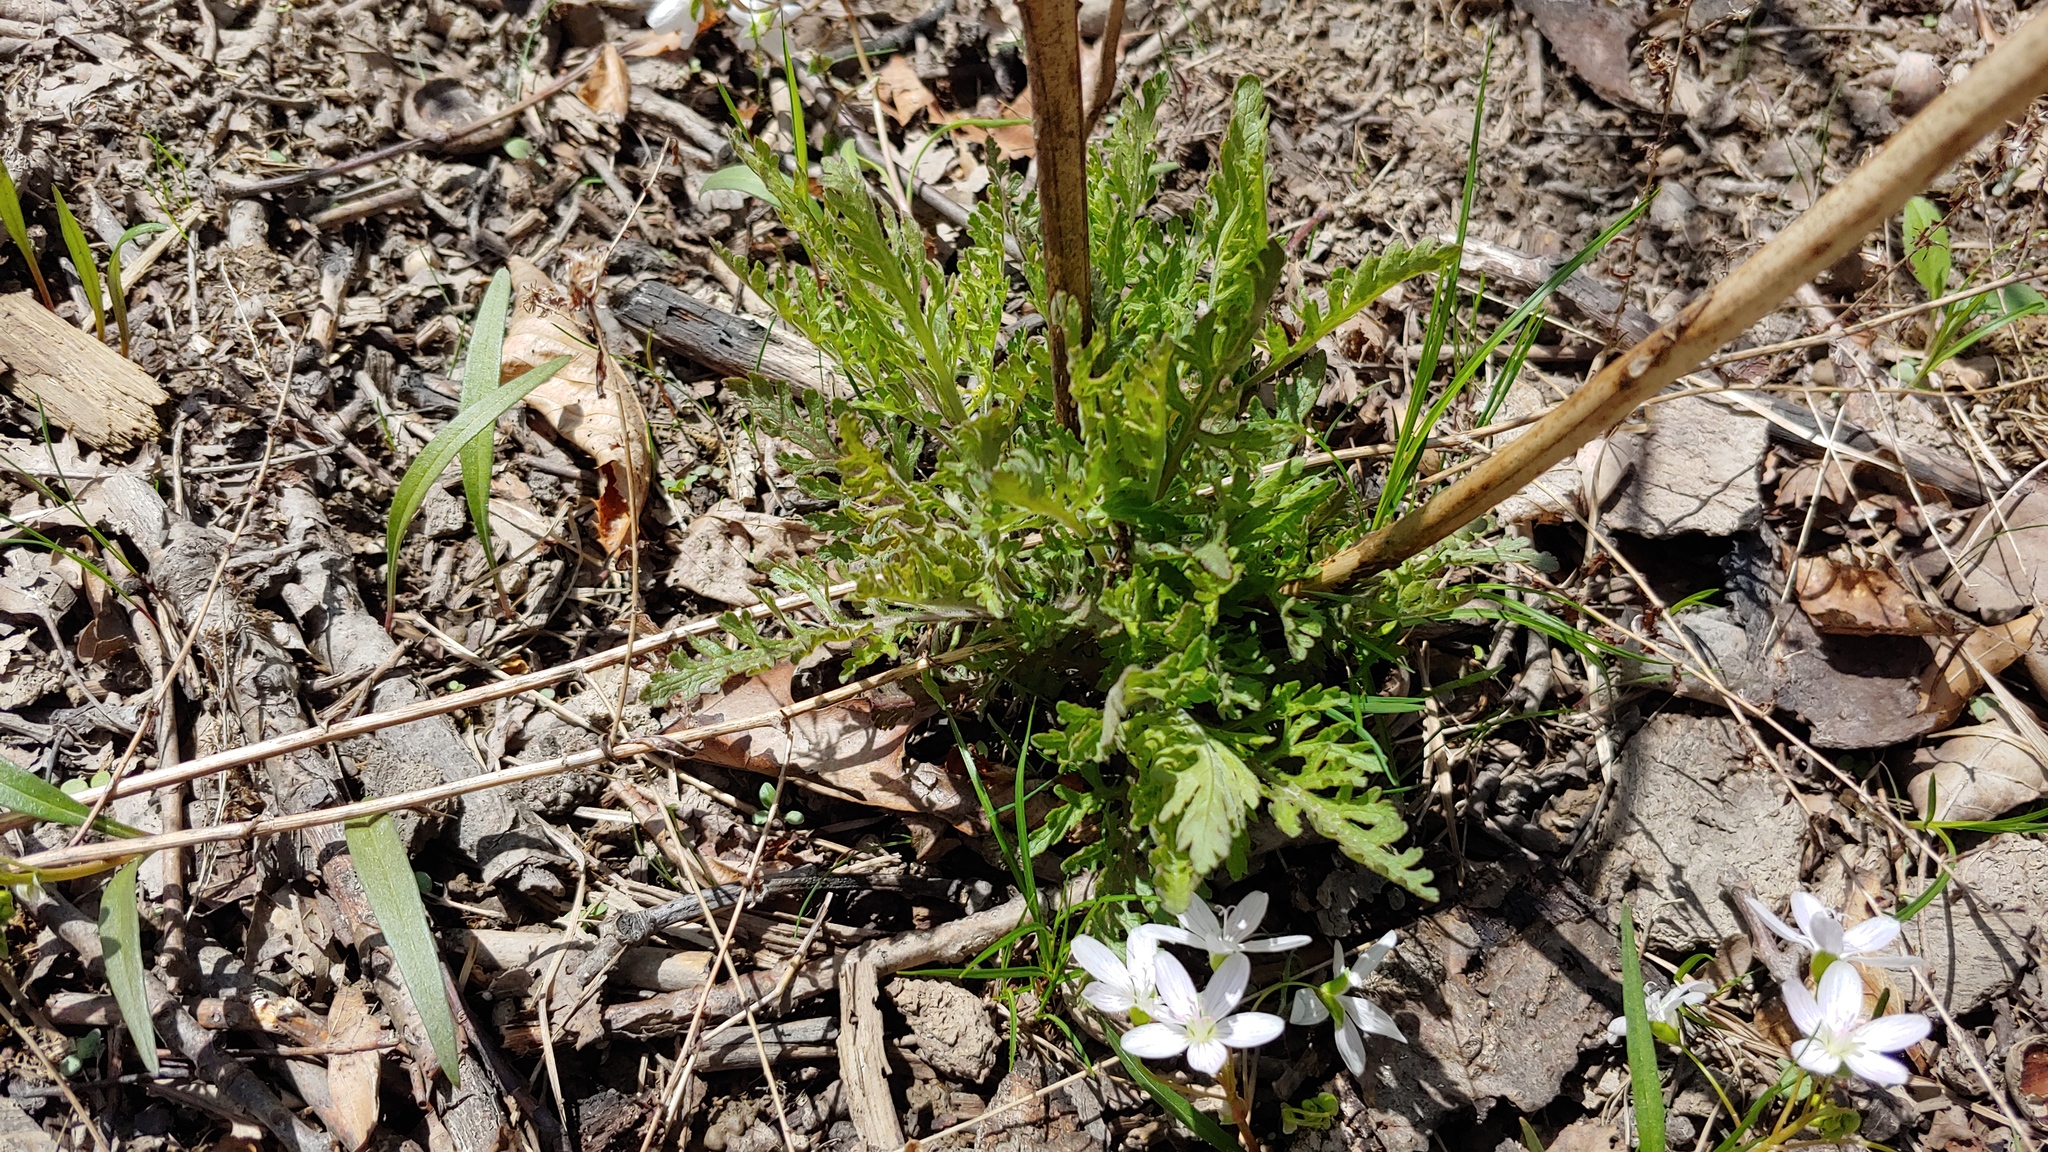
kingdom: Plantae
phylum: Tracheophyta
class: Magnoliopsida
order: Lamiales
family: Orobanchaceae
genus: Aureolaria
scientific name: Aureolaria grandiflora
